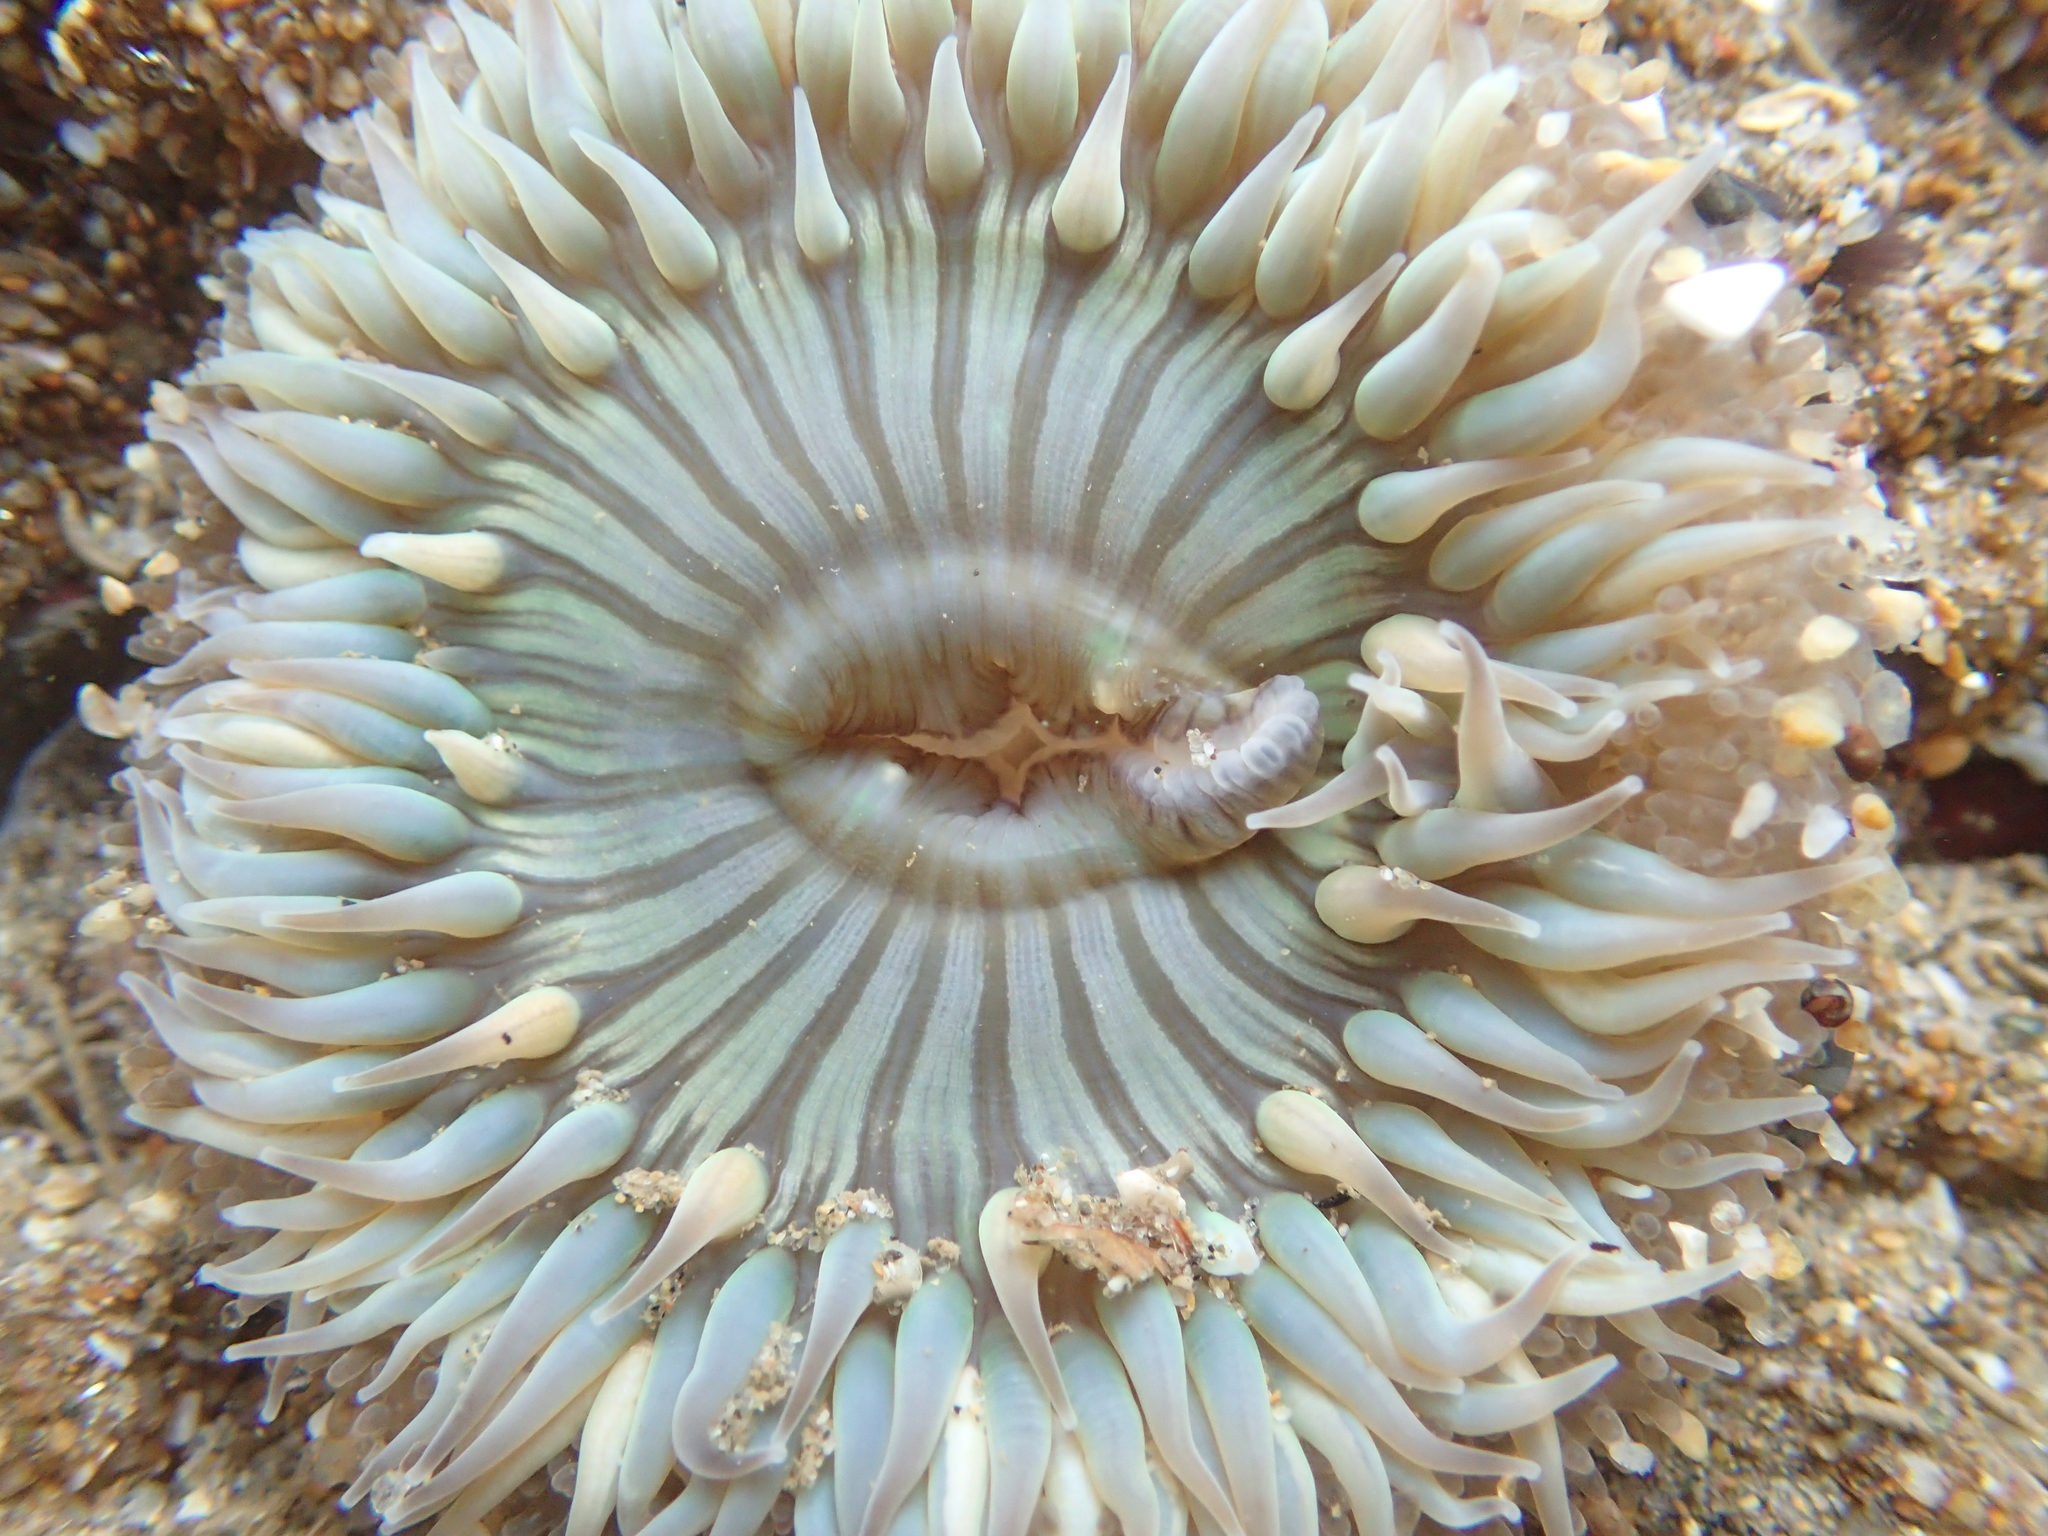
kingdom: Animalia
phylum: Cnidaria
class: Anthozoa
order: Actiniaria
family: Actiniidae
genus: Anthopleura
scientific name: Anthopleura sola
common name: Sun anemone
